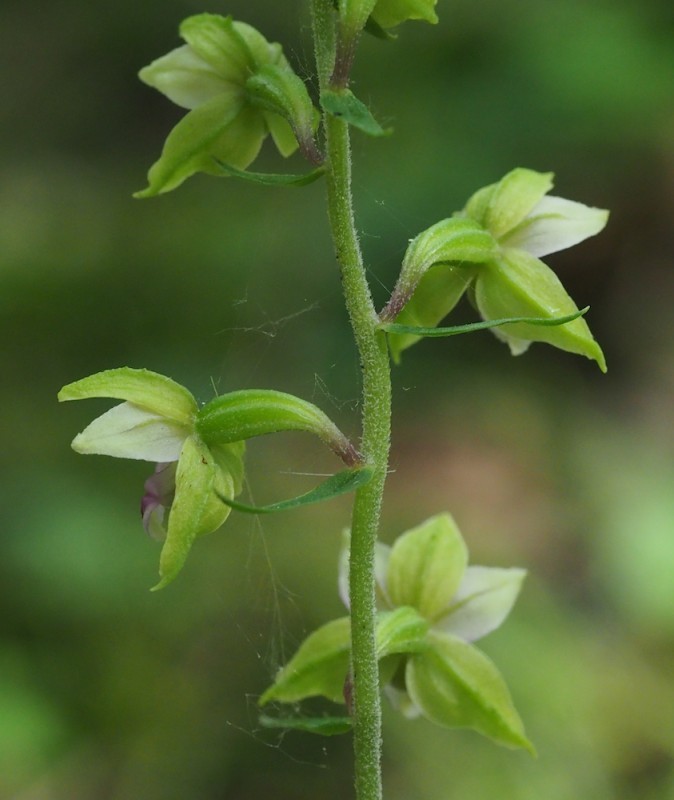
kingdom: Plantae
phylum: Tracheophyta
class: Liliopsida
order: Asparagales
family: Orchidaceae
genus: Epipactis
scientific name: Epipactis helleborine
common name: Broad-leaved helleborine
